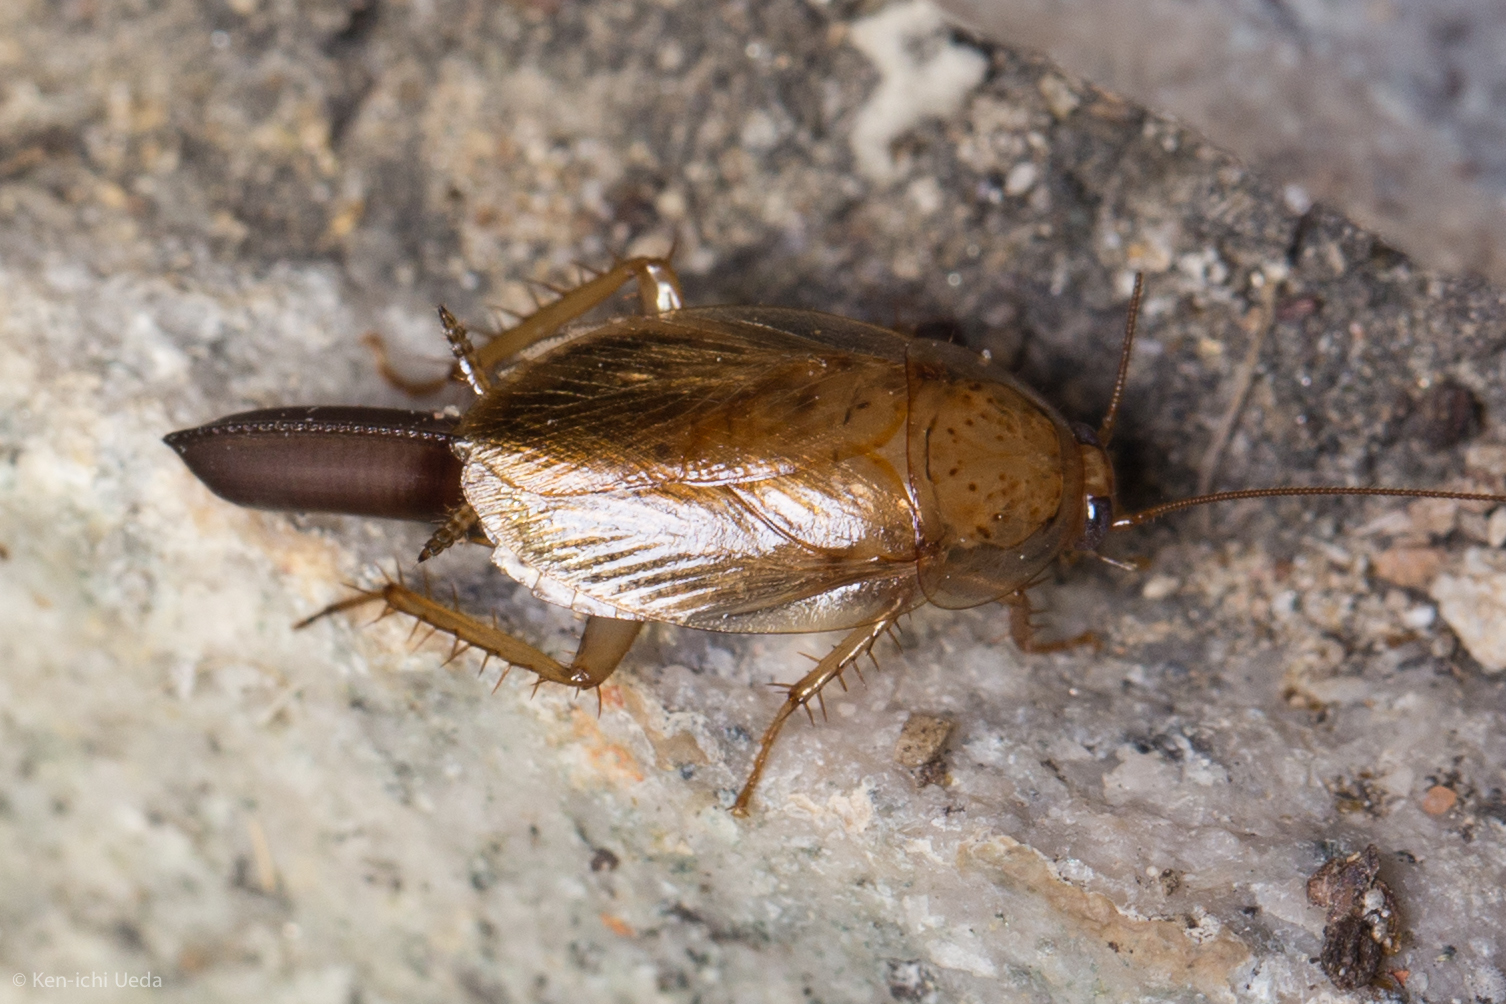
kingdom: Animalia
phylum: Arthropoda
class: Insecta
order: Blattodea
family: Ectobiidae
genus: Latiblattella
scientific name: Latiblattella lucifrons
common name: Pale-headed cockroach
